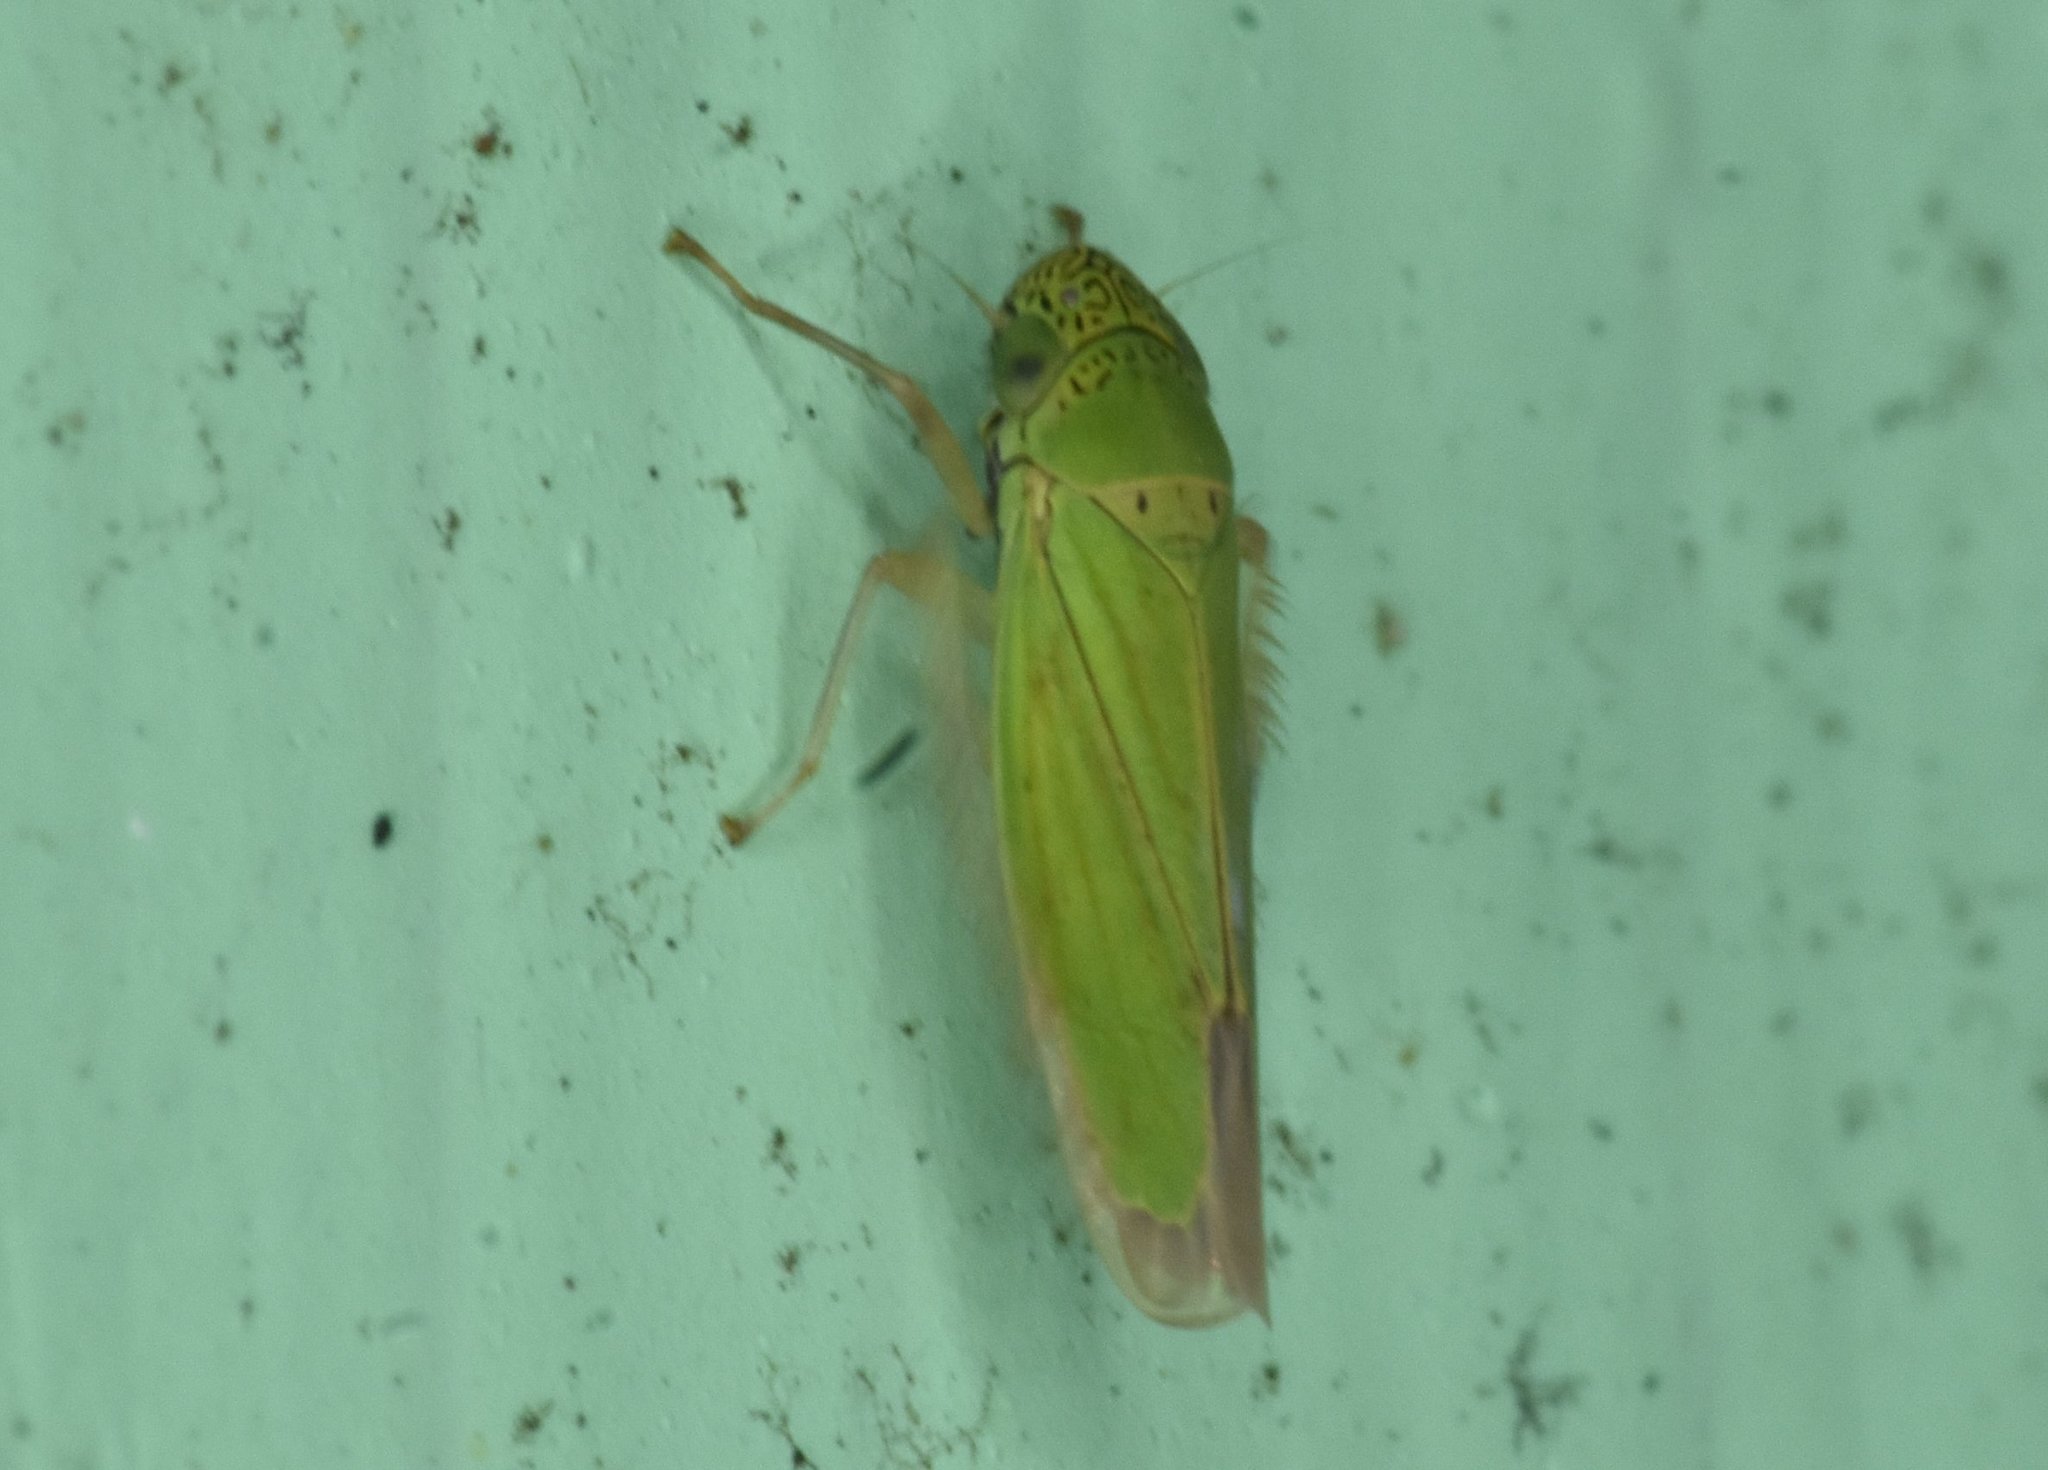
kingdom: Animalia
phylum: Arthropoda
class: Insecta
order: Hemiptera
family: Cicadellidae
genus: Hortensia
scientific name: Hortensia similis
